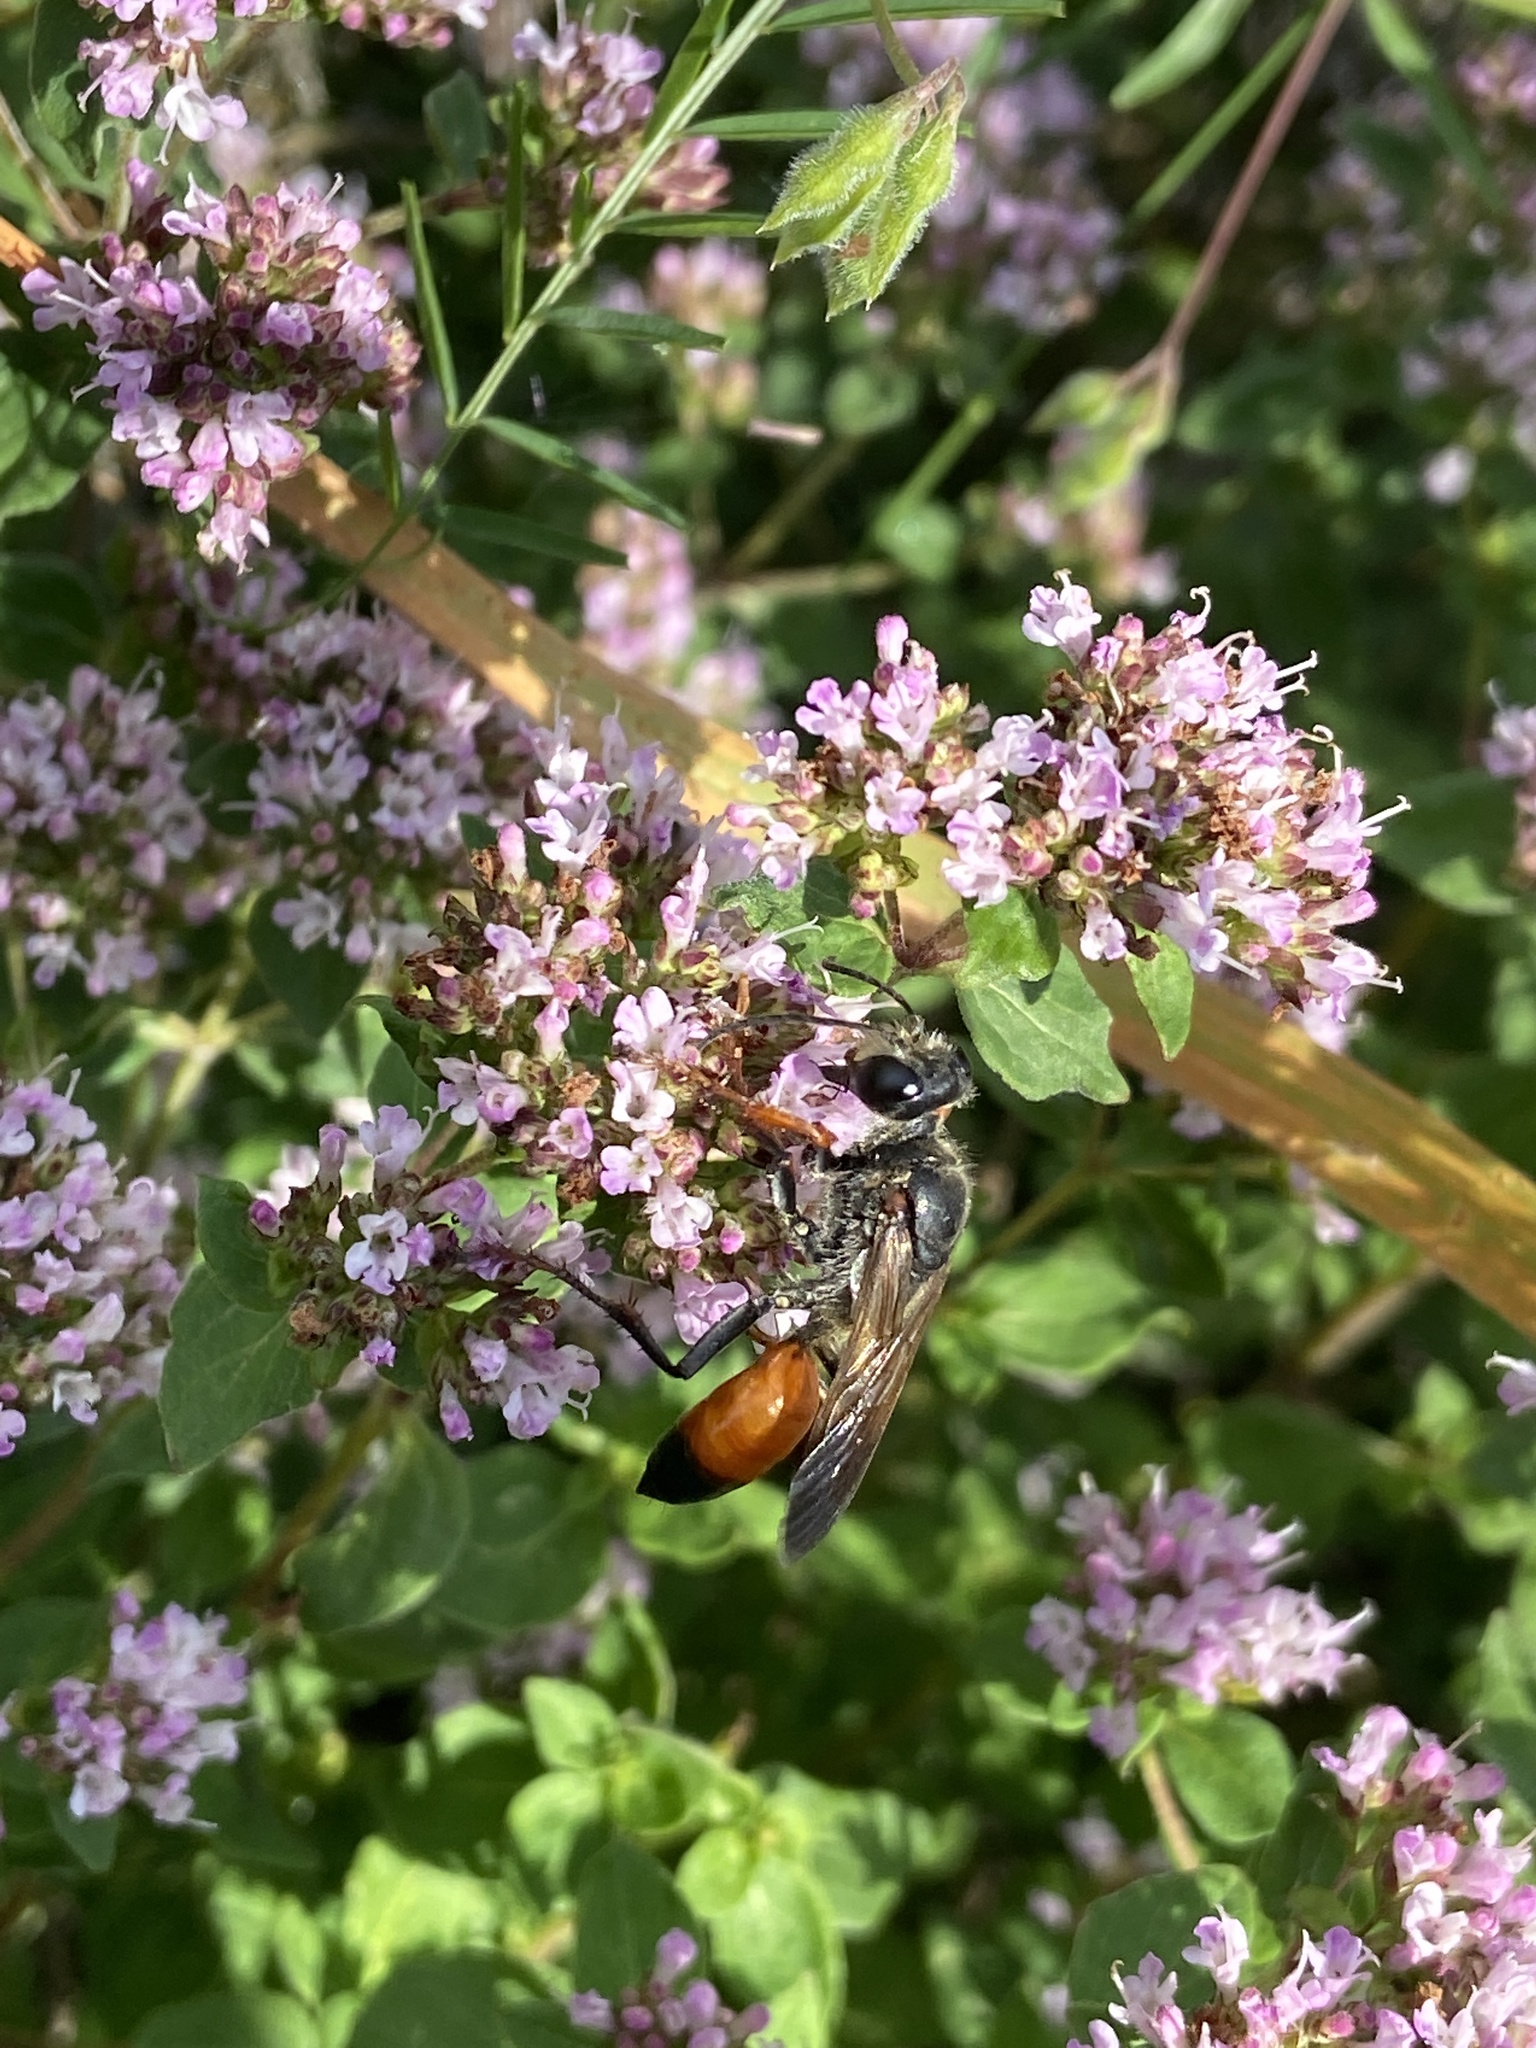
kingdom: Animalia
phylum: Arthropoda
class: Insecta
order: Hymenoptera
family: Sphecidae
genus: Sphex
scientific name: Sphex funerarius
